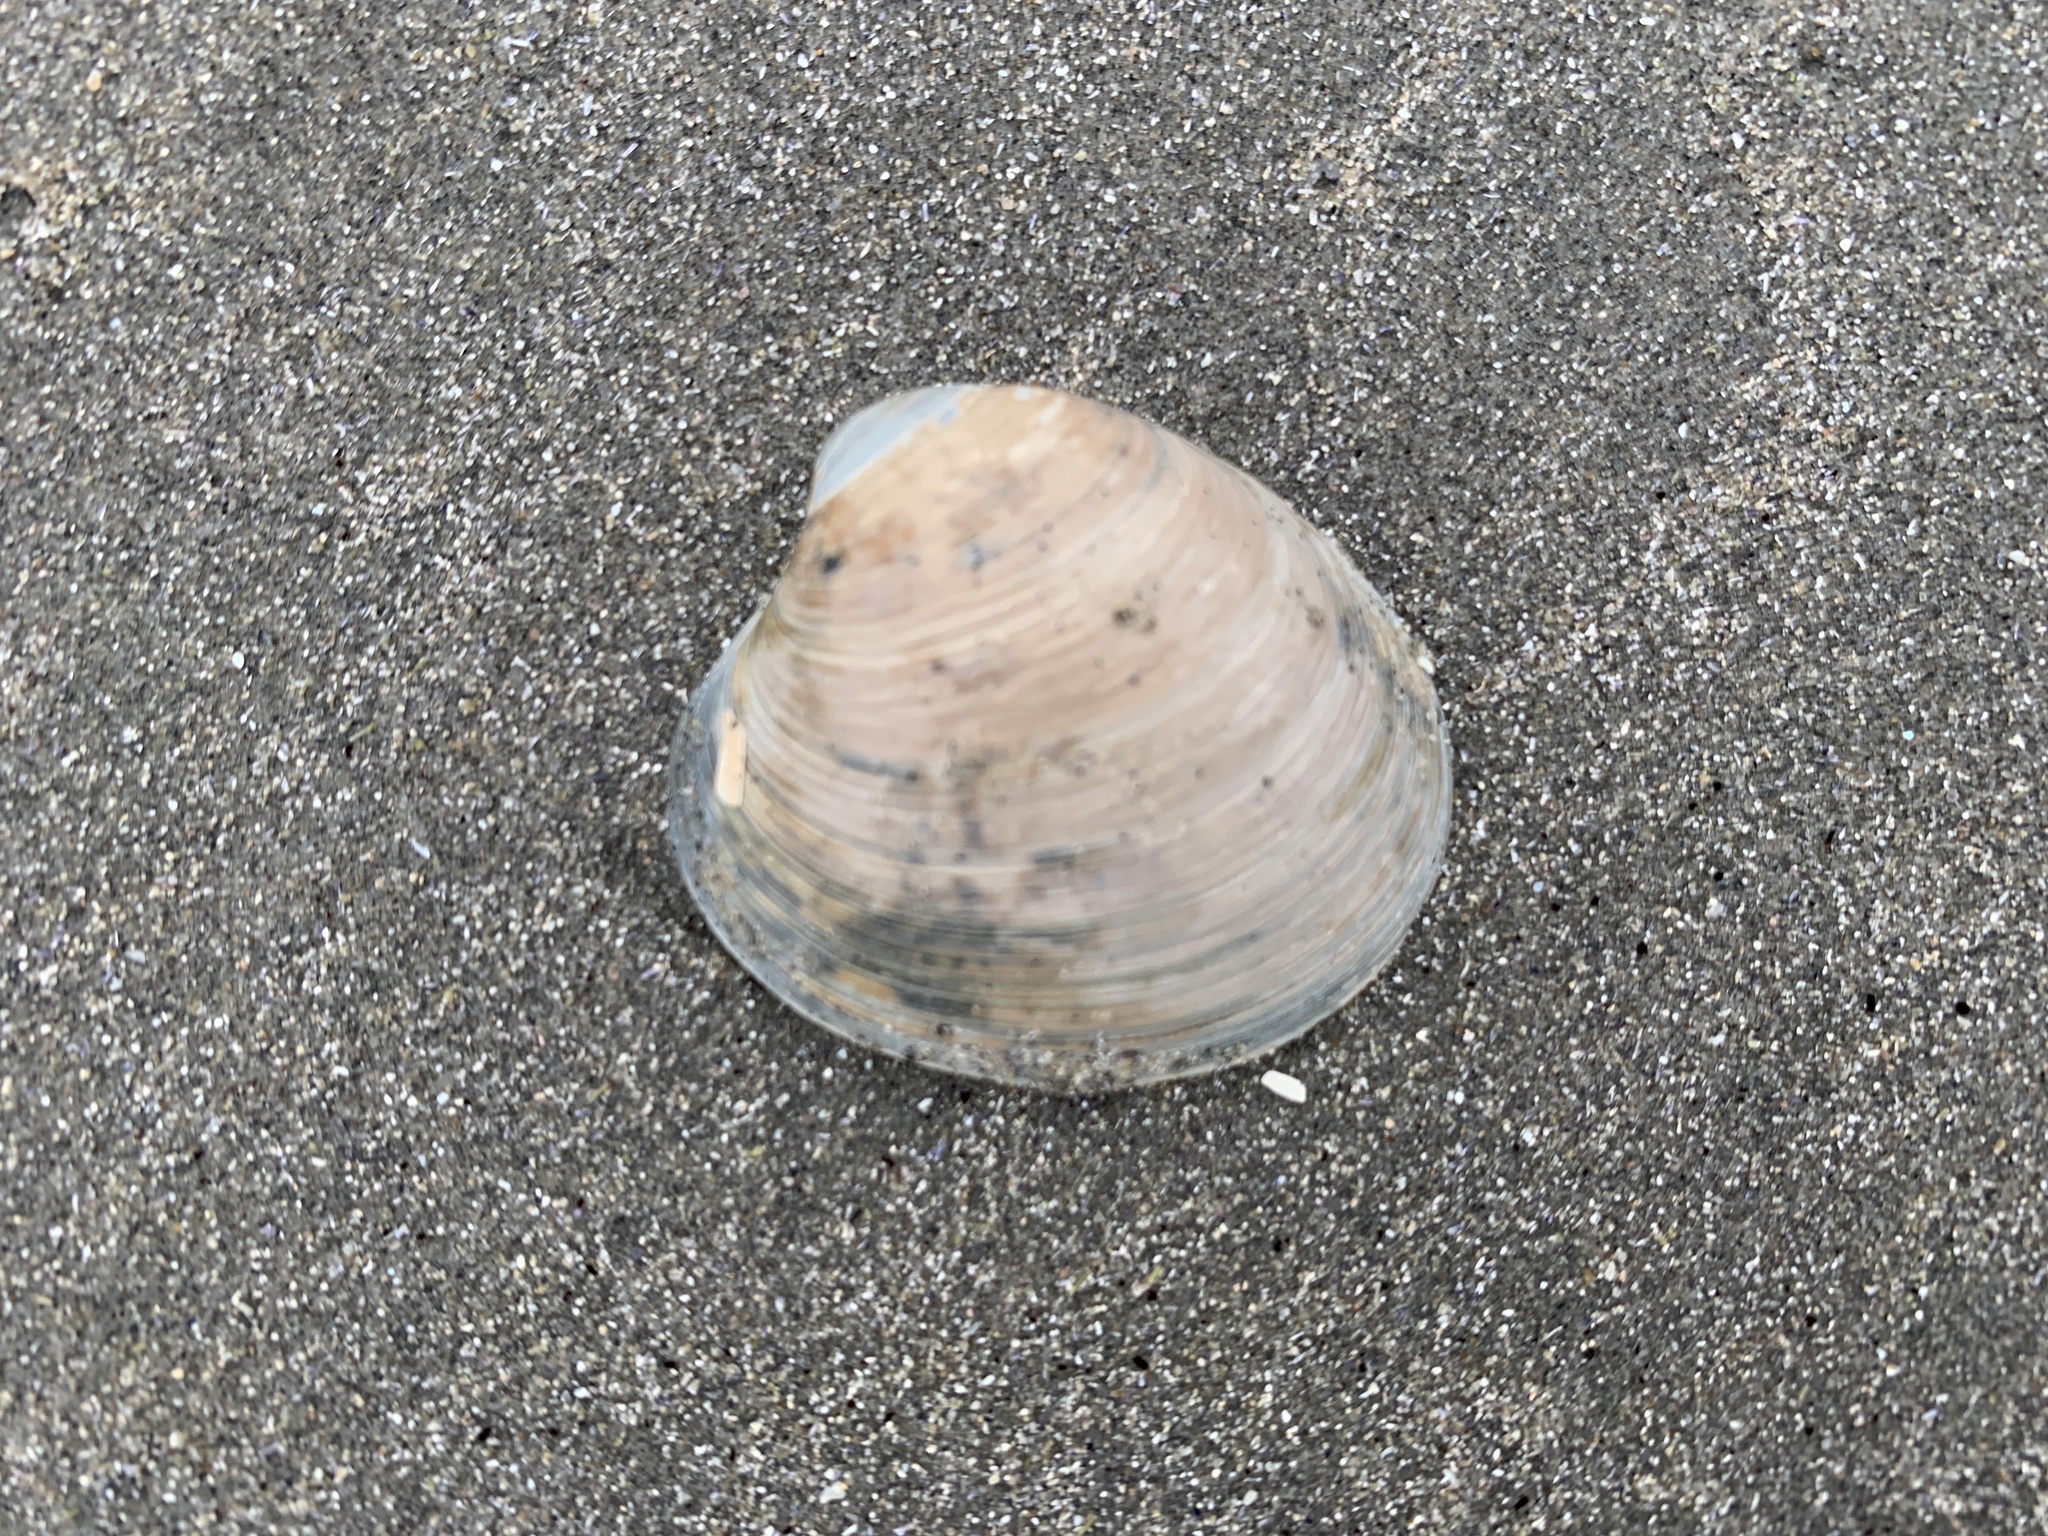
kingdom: Animalia
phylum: Mollusca
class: Bivalvia
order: Venerida
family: Veneridae
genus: Agriopoma
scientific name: Agriopoma morrhuanum
